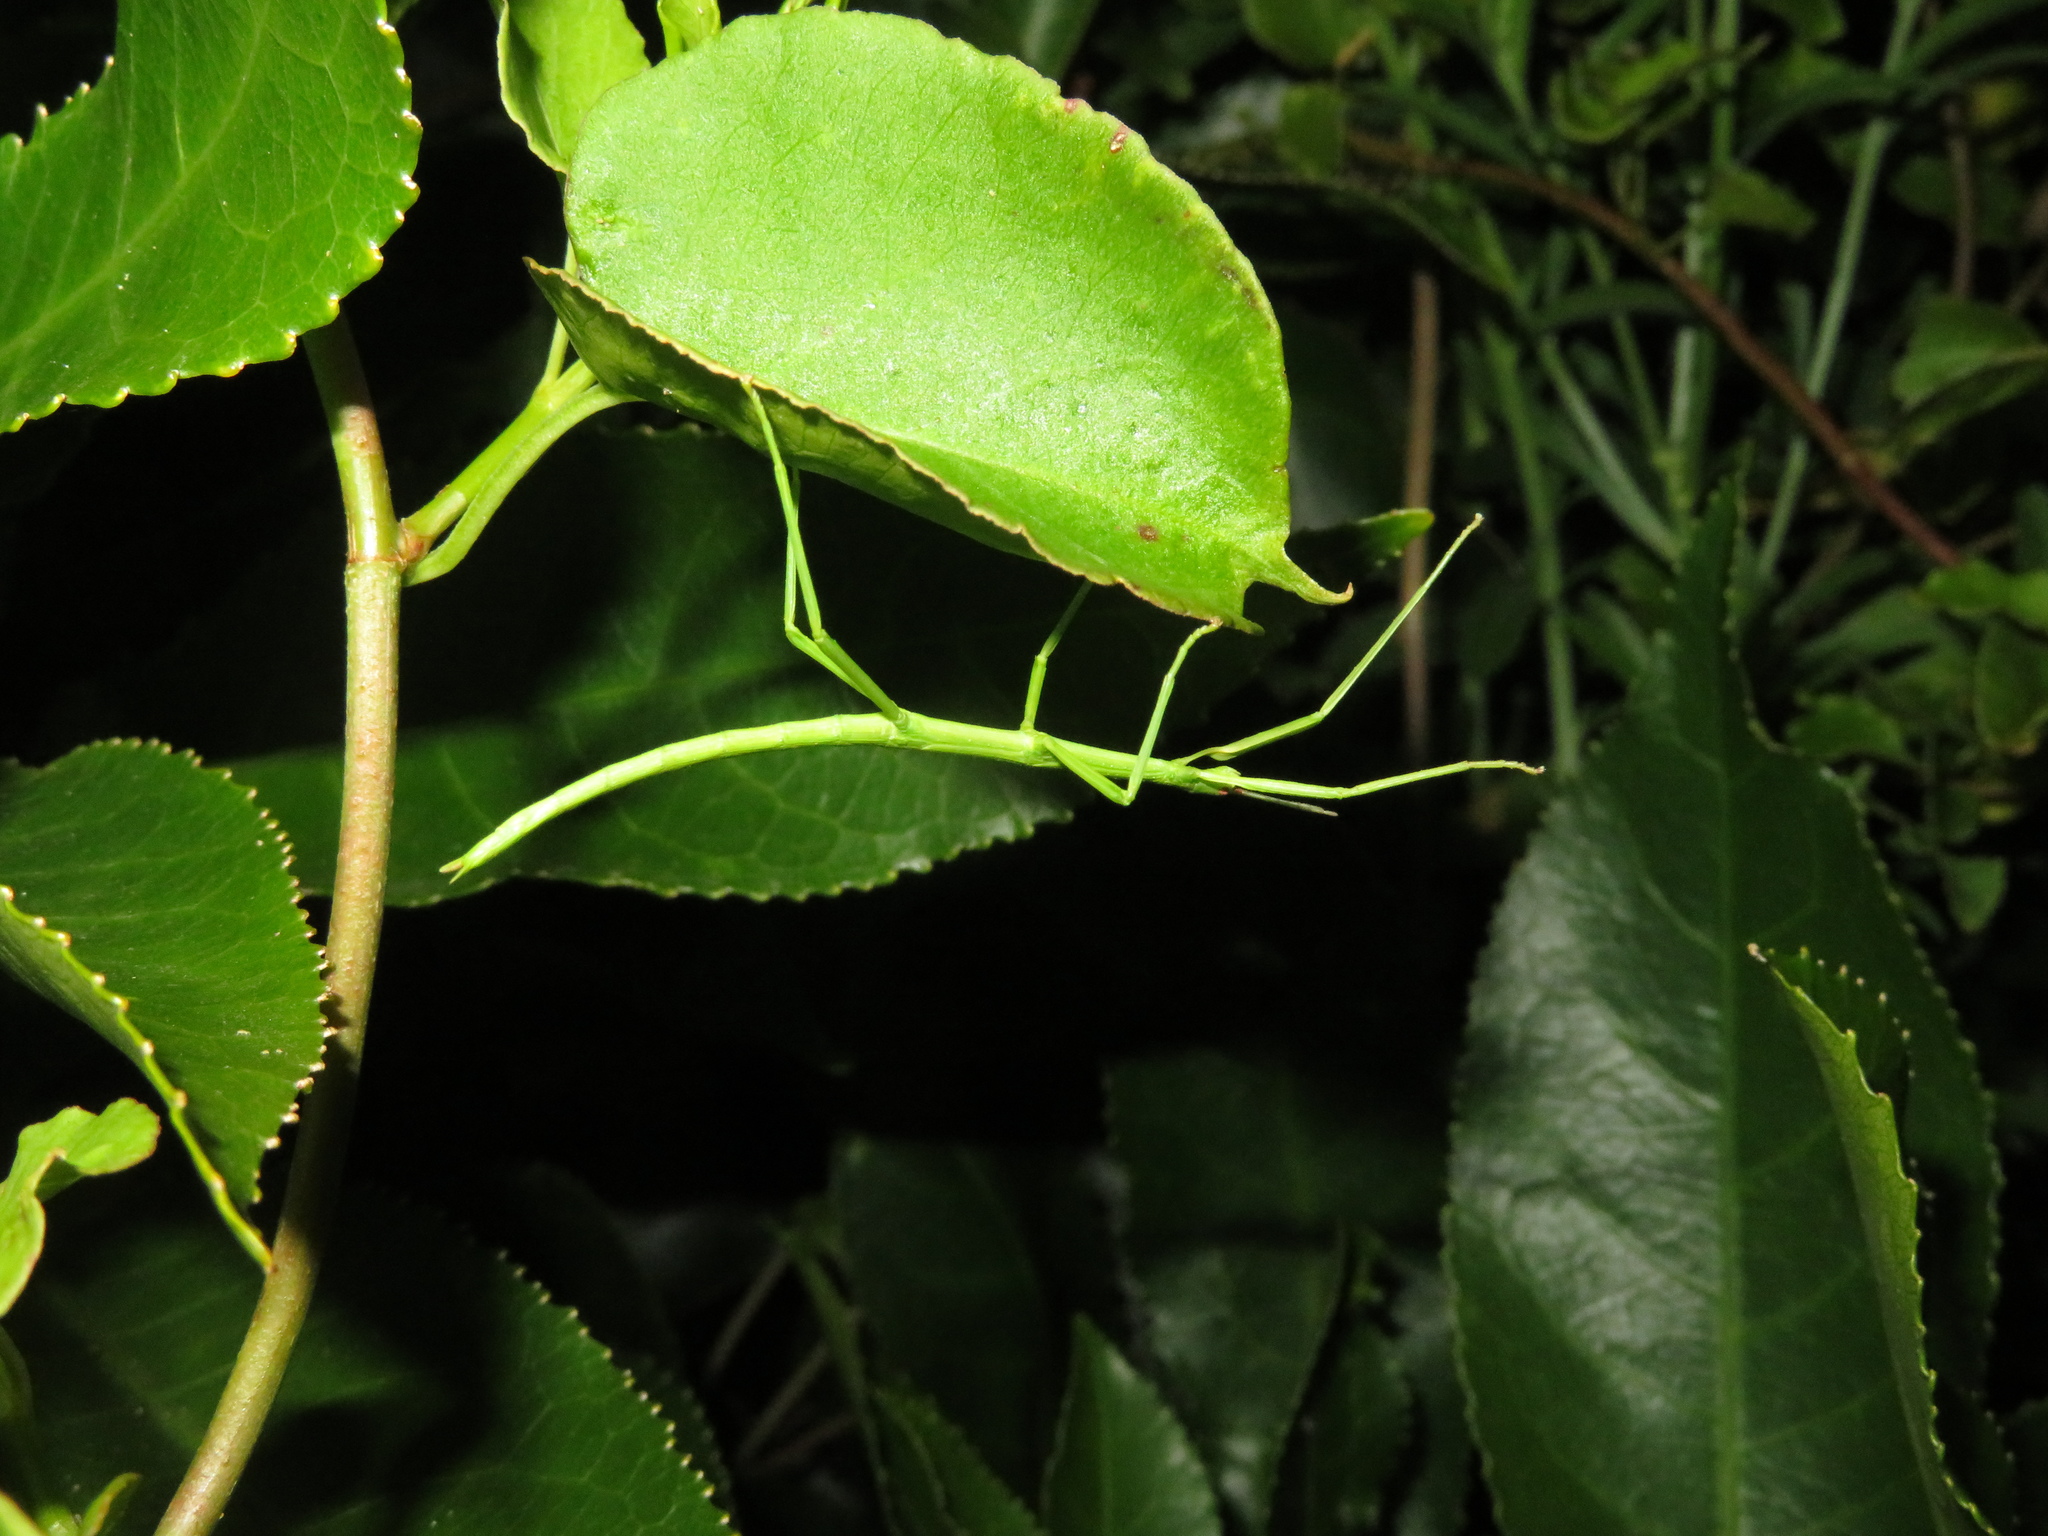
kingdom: Animalia
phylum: Arthropoda
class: Insecta
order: Phasmida
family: Phasmatidae
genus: Clitarchus
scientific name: Clitarchus hookeri
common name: Smooth stick insect
